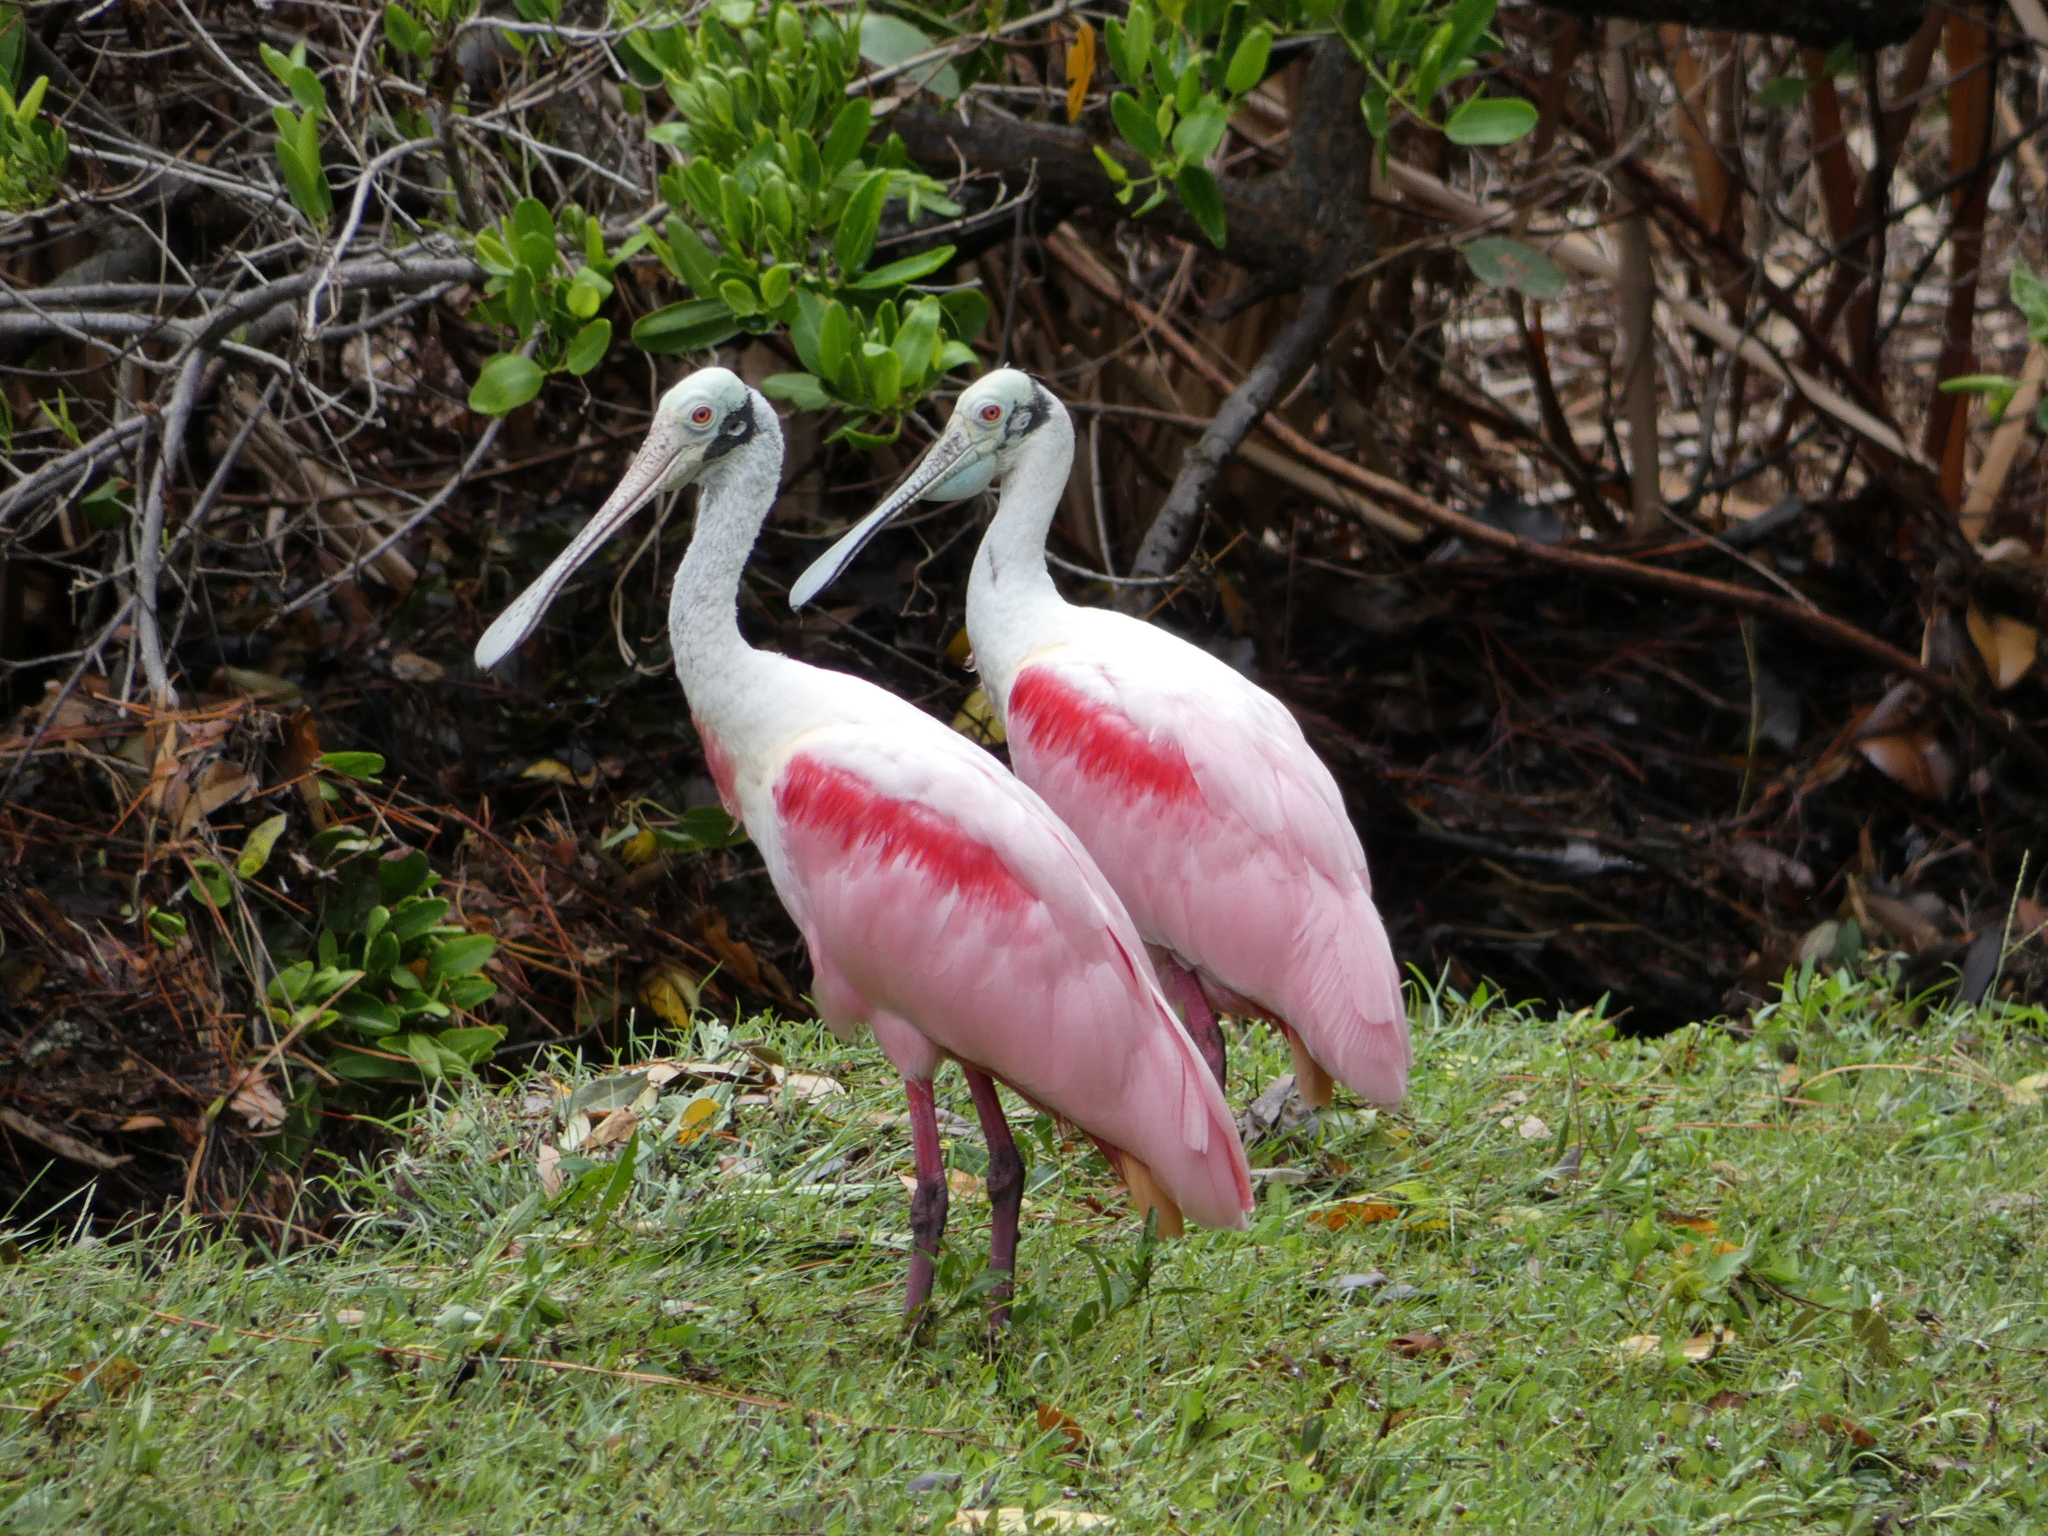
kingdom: Animalia
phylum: Chordata
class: Aves
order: Pelecaniformes
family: Threskiornithidae
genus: Platalea
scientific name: Platalea ajaja
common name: Roseate spoonbill
